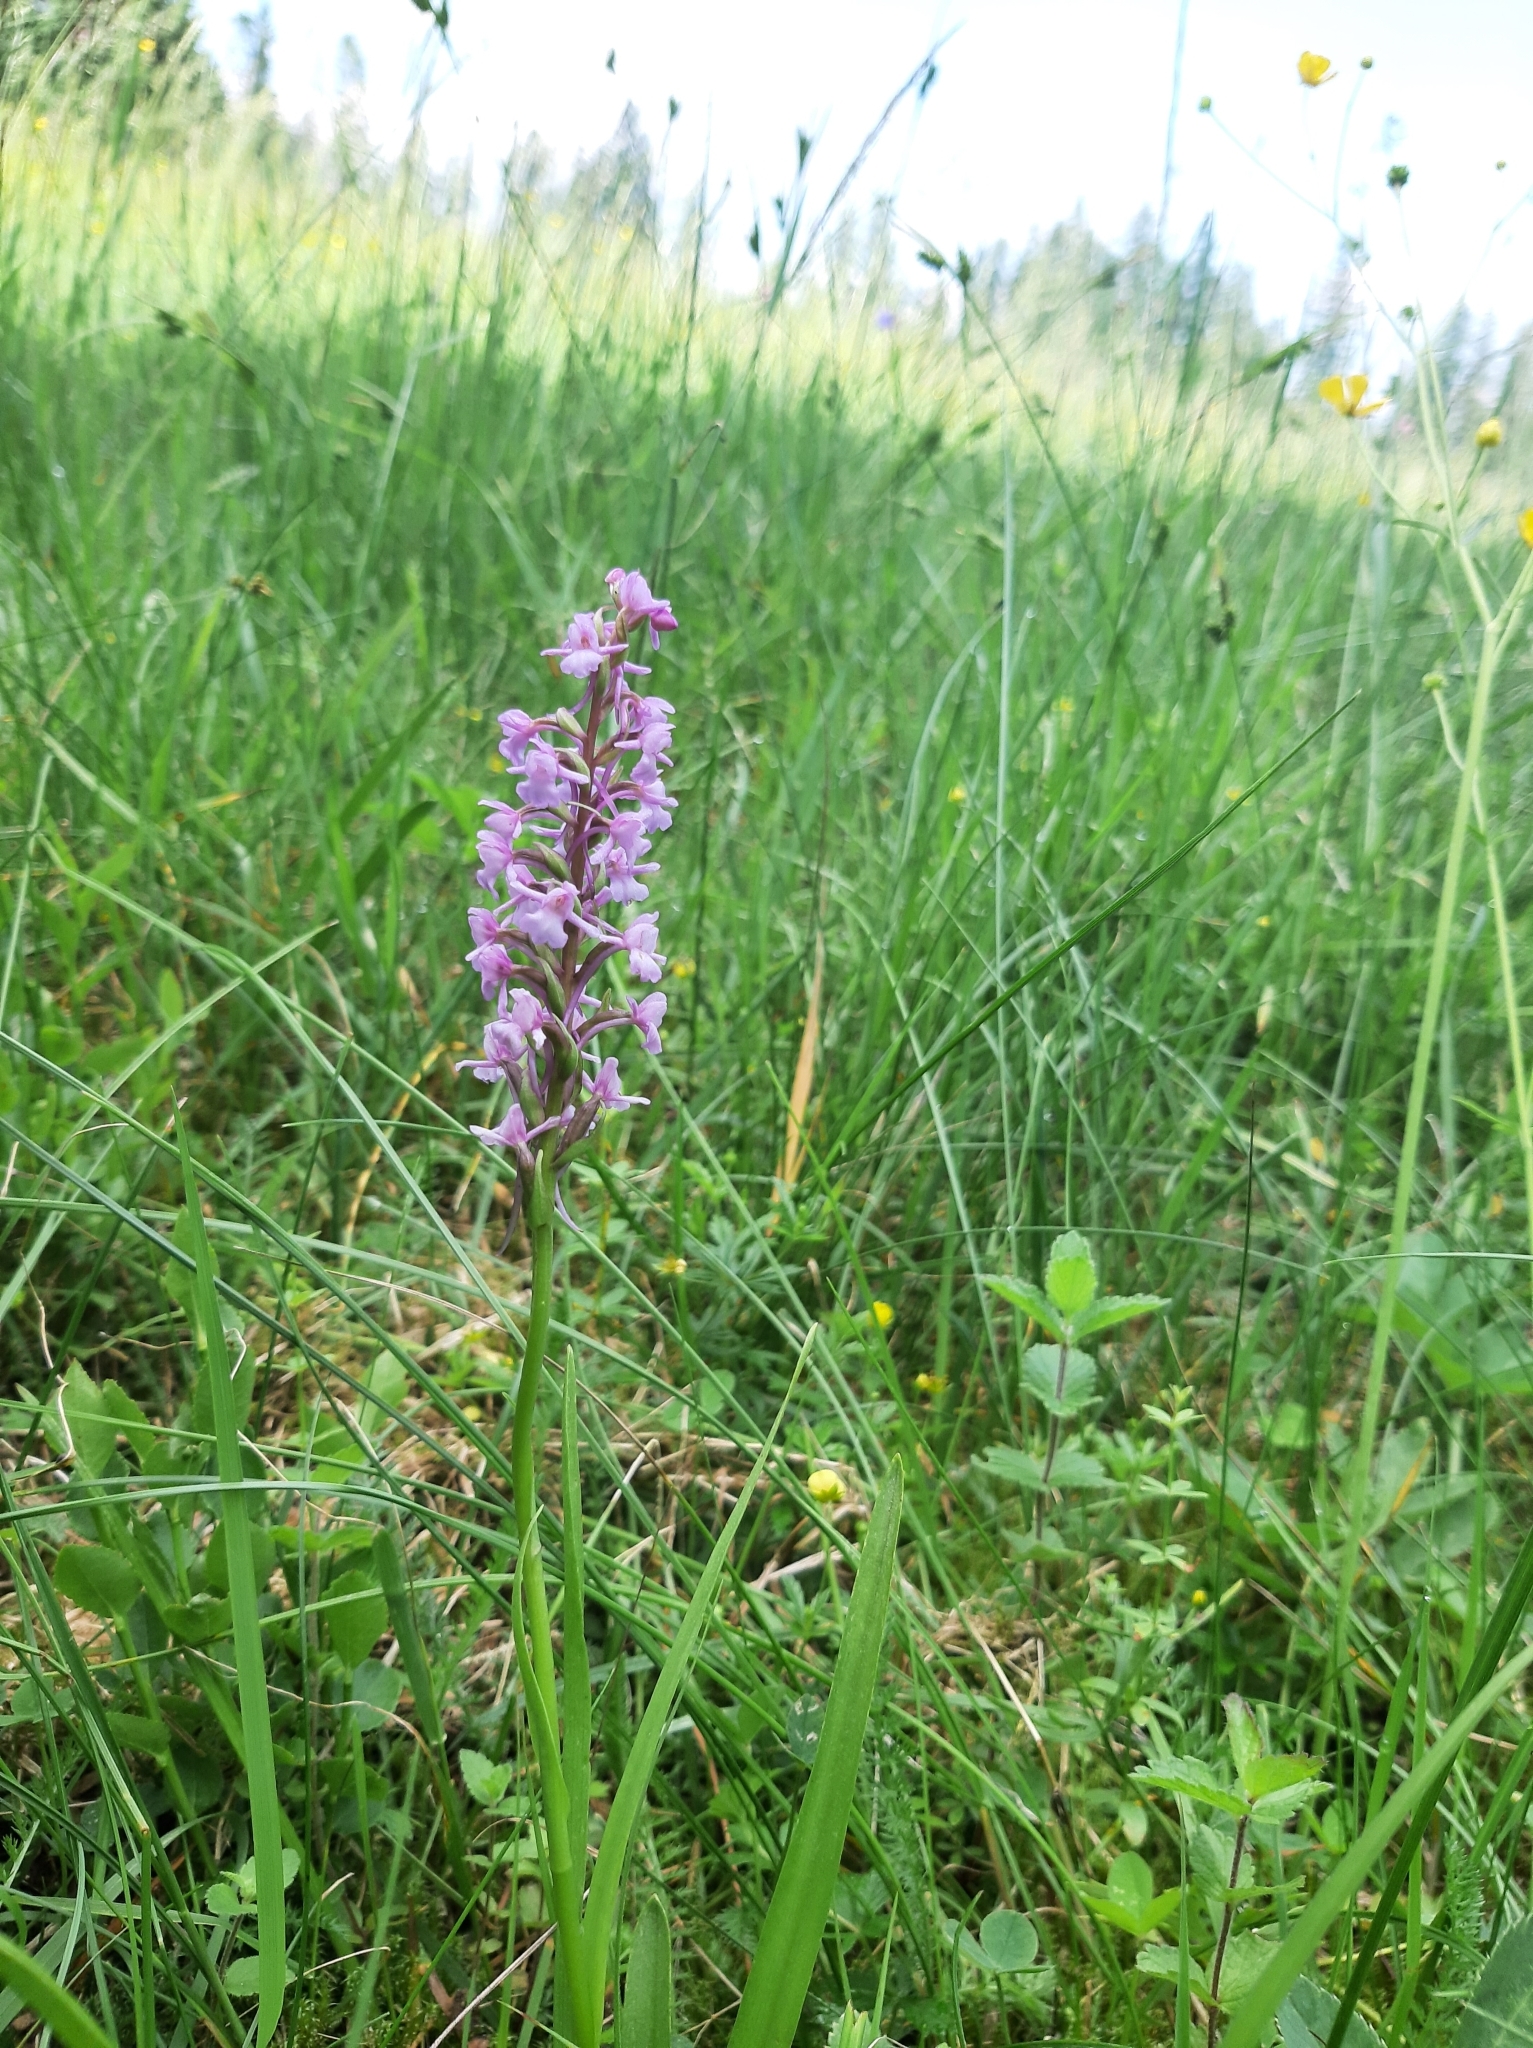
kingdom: Plantae
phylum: Tracheophyta
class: Liliopsida
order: Asparagales
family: Orchidaceae
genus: Gymnadenia
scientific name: Gymnadenia conopsea
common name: Fragrant orchid
